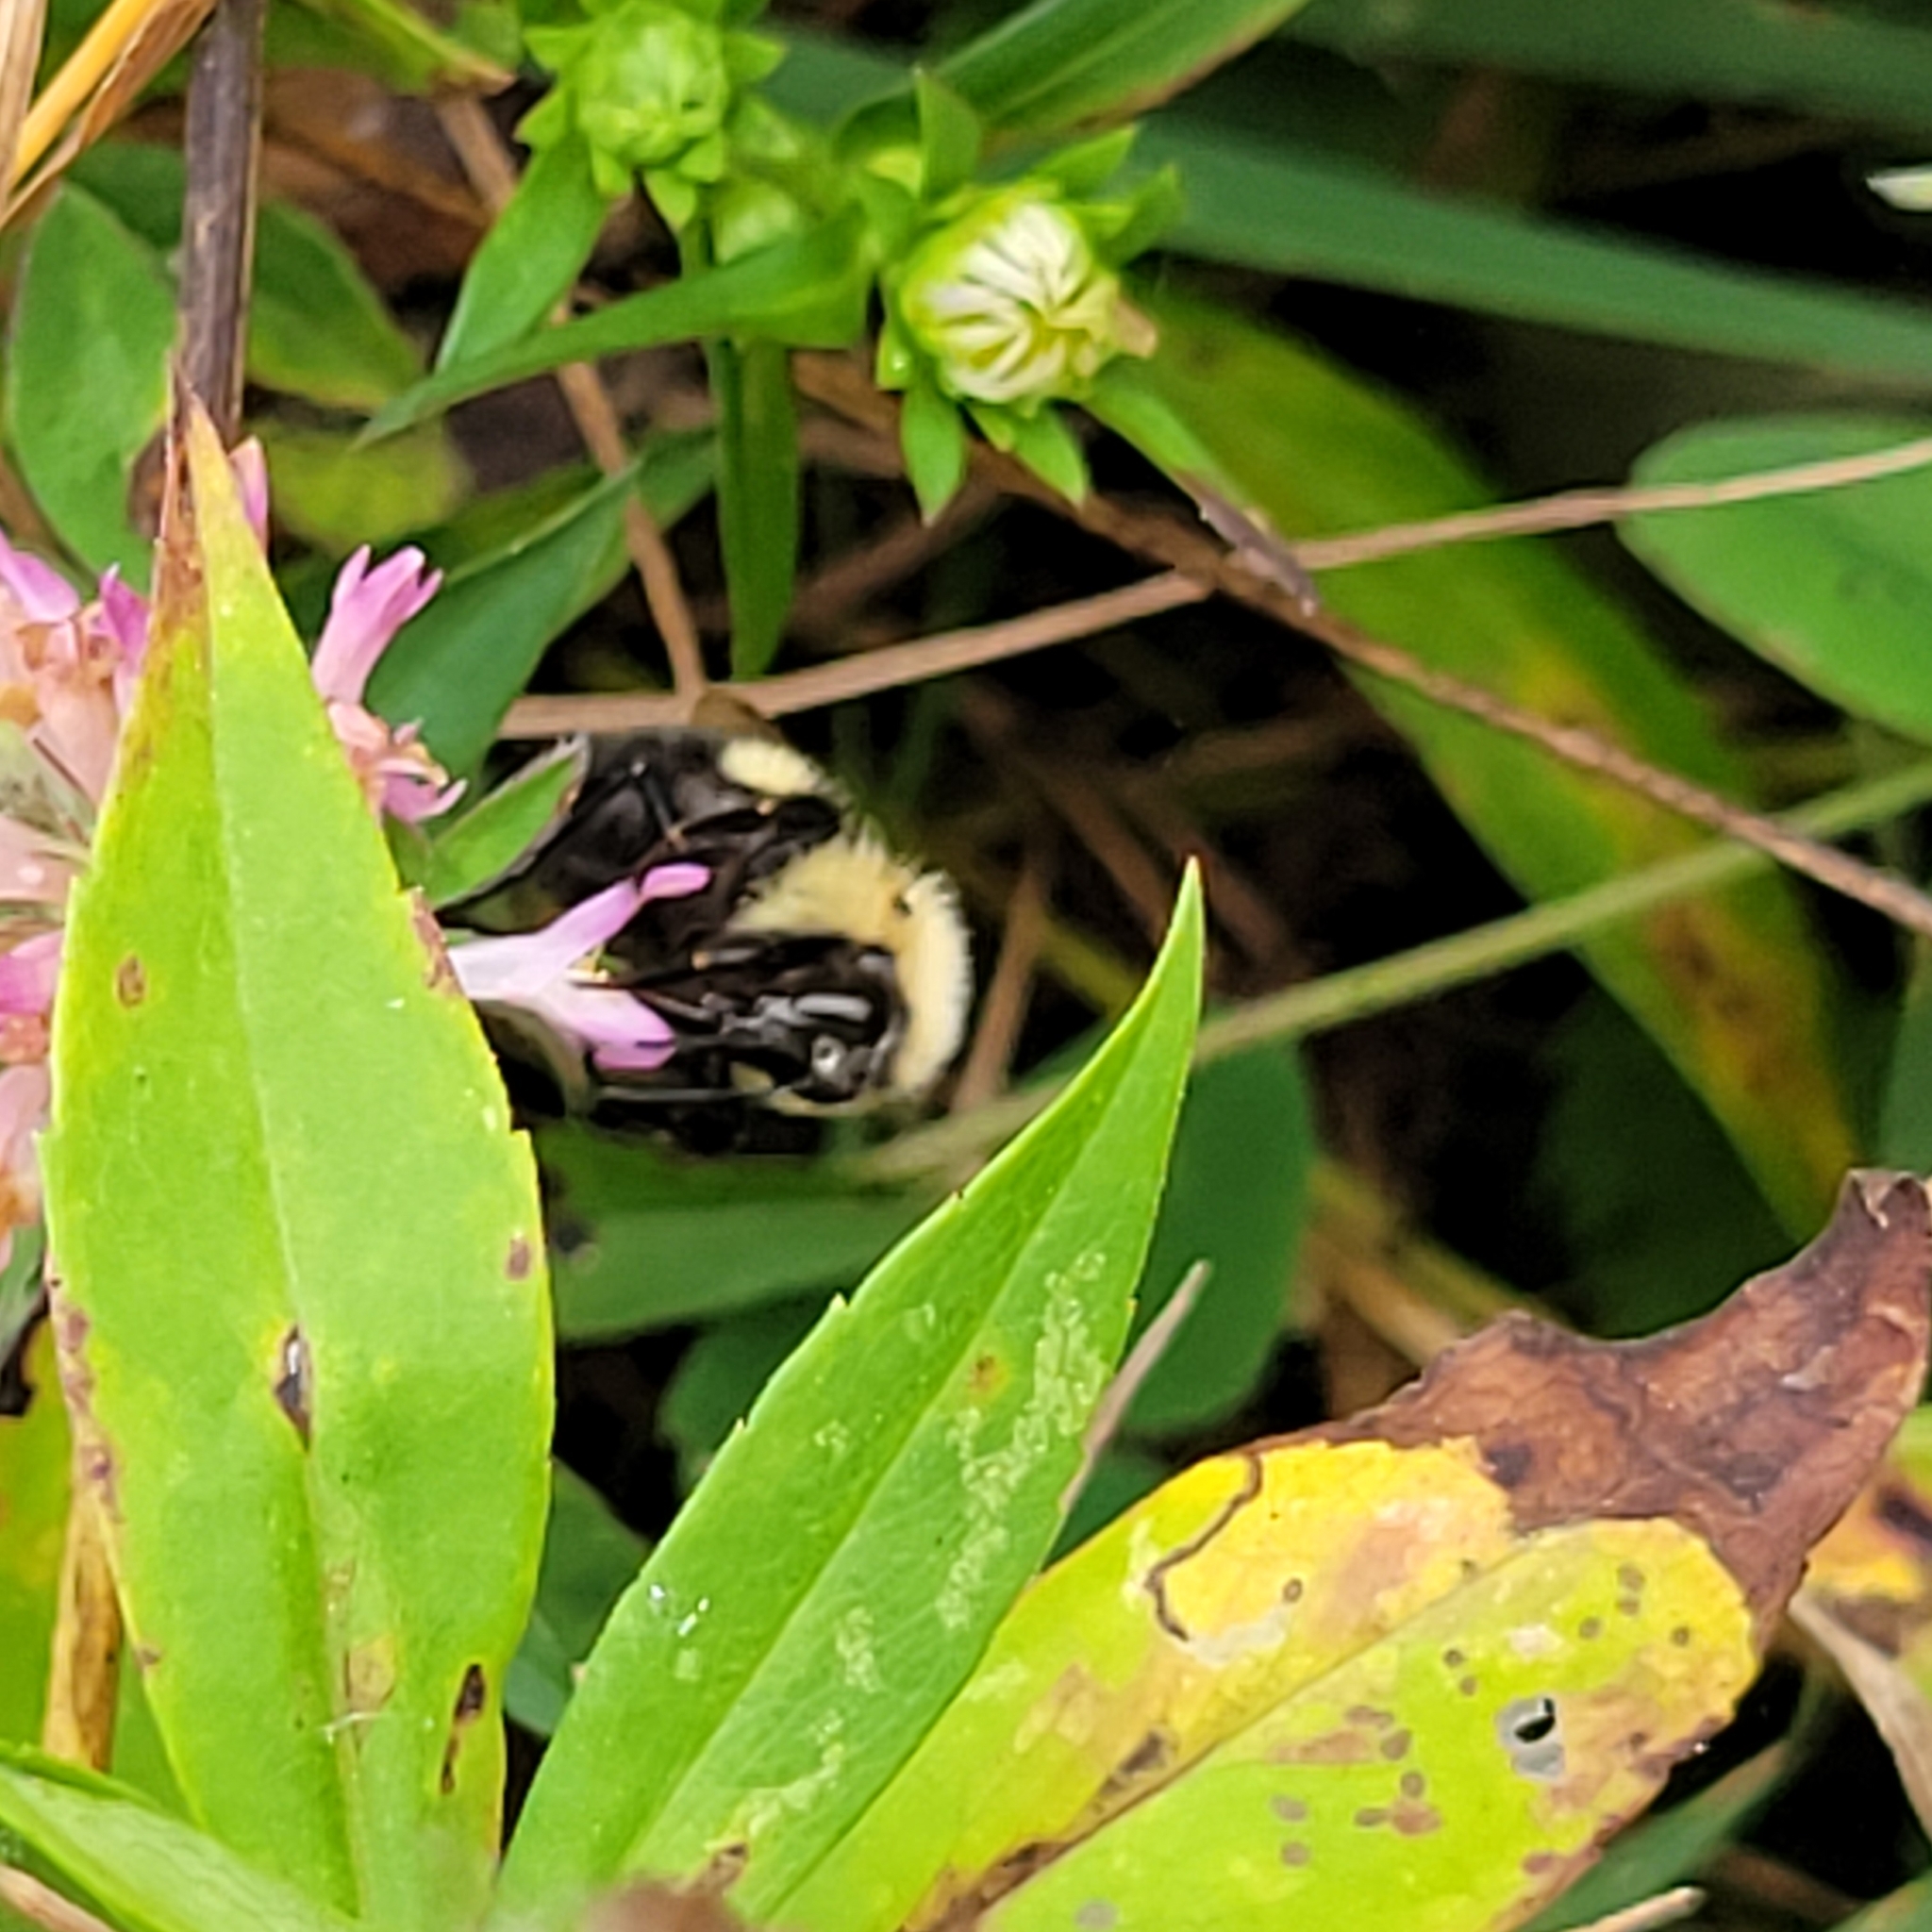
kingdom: Animalia
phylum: Arthropoda
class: Insecta
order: Hymenoptera
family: Apidae
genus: Pyrobombus
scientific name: Pyrobombus
